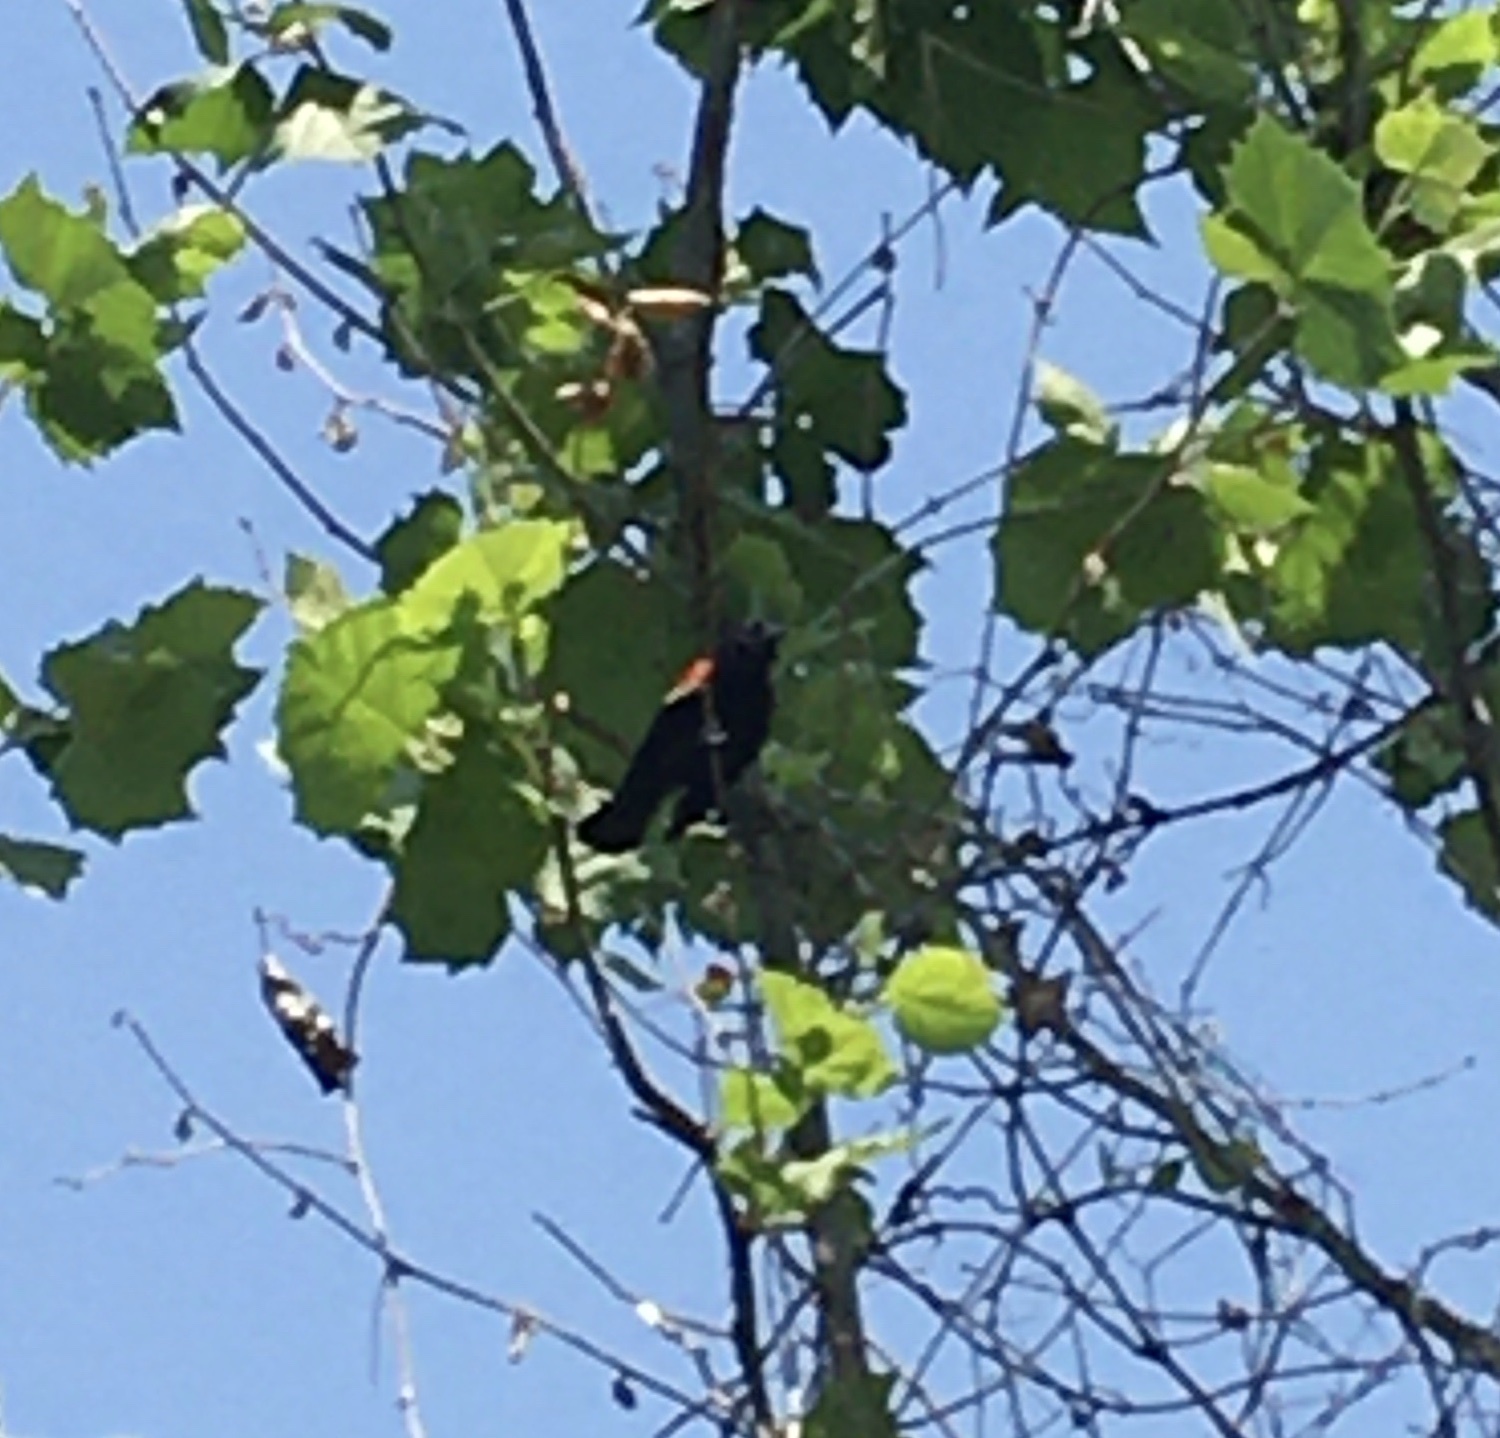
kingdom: Animalia
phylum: Chordata
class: Aves
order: Passeriformes
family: Icteridae
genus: Agelaius
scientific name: Agelaius phoeniceus
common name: Red-winged blackbird
